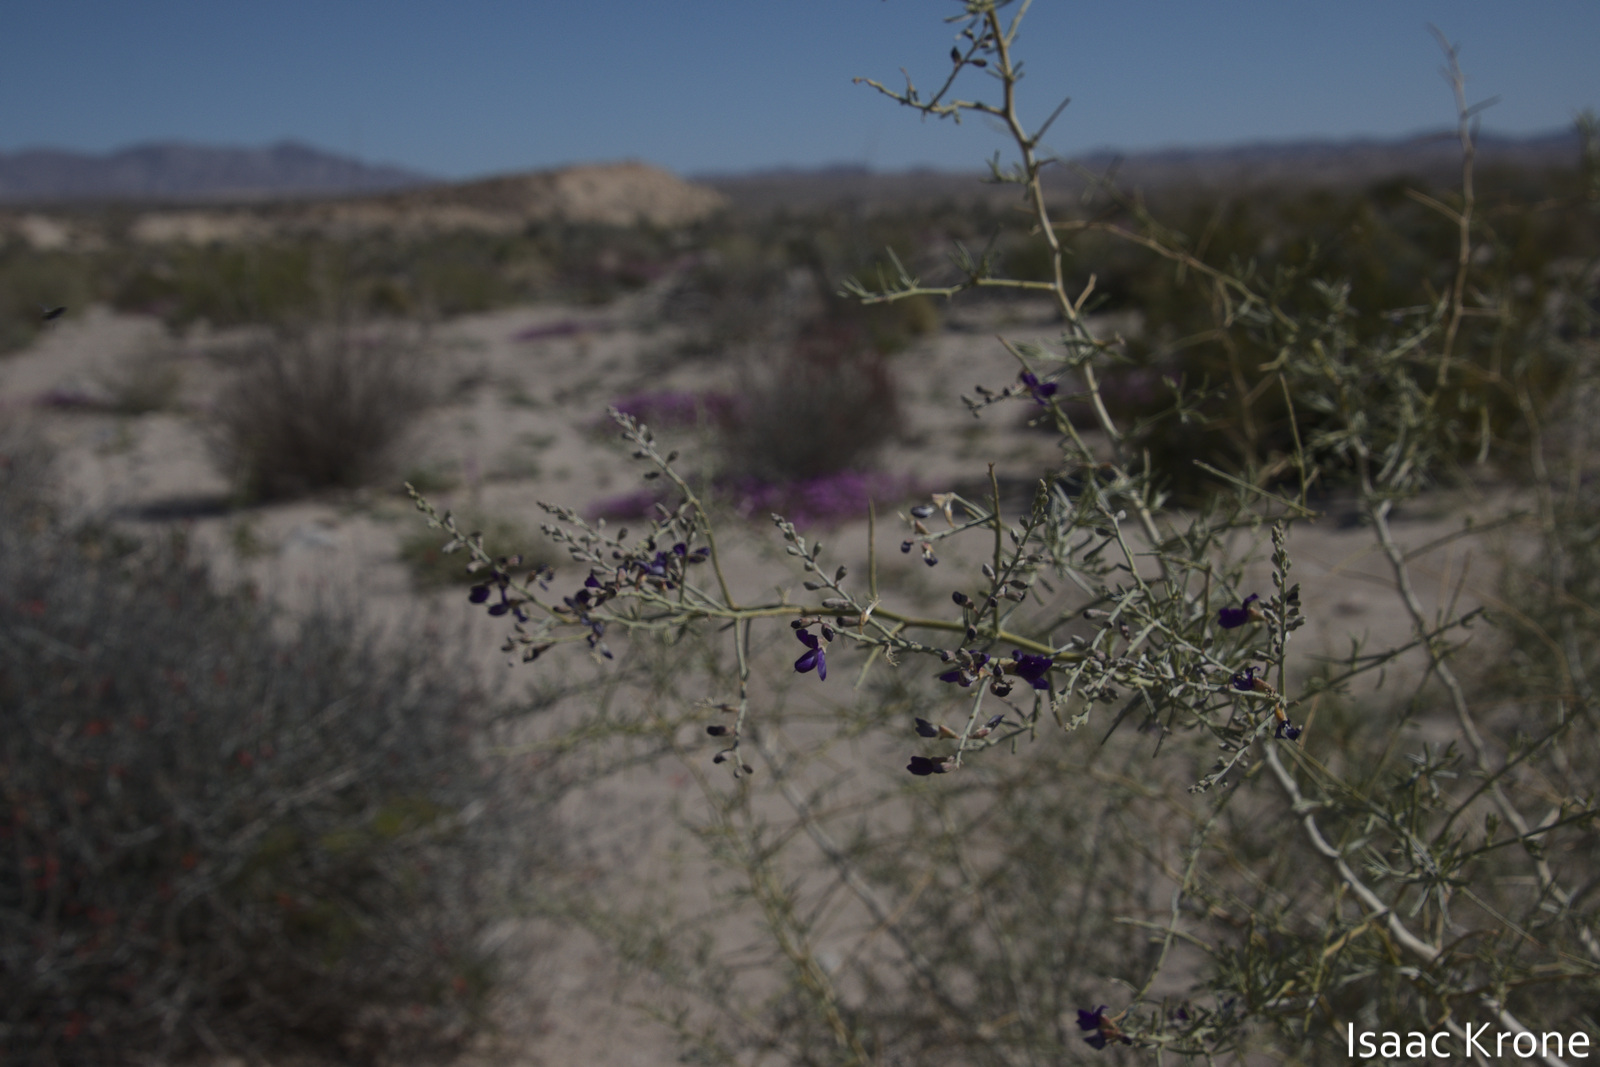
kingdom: Plantae
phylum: Tracheophyta
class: Magnoliopsida
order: Fabales
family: Fabaceae
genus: Psorothamnus
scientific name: Psorothamnus schottii
